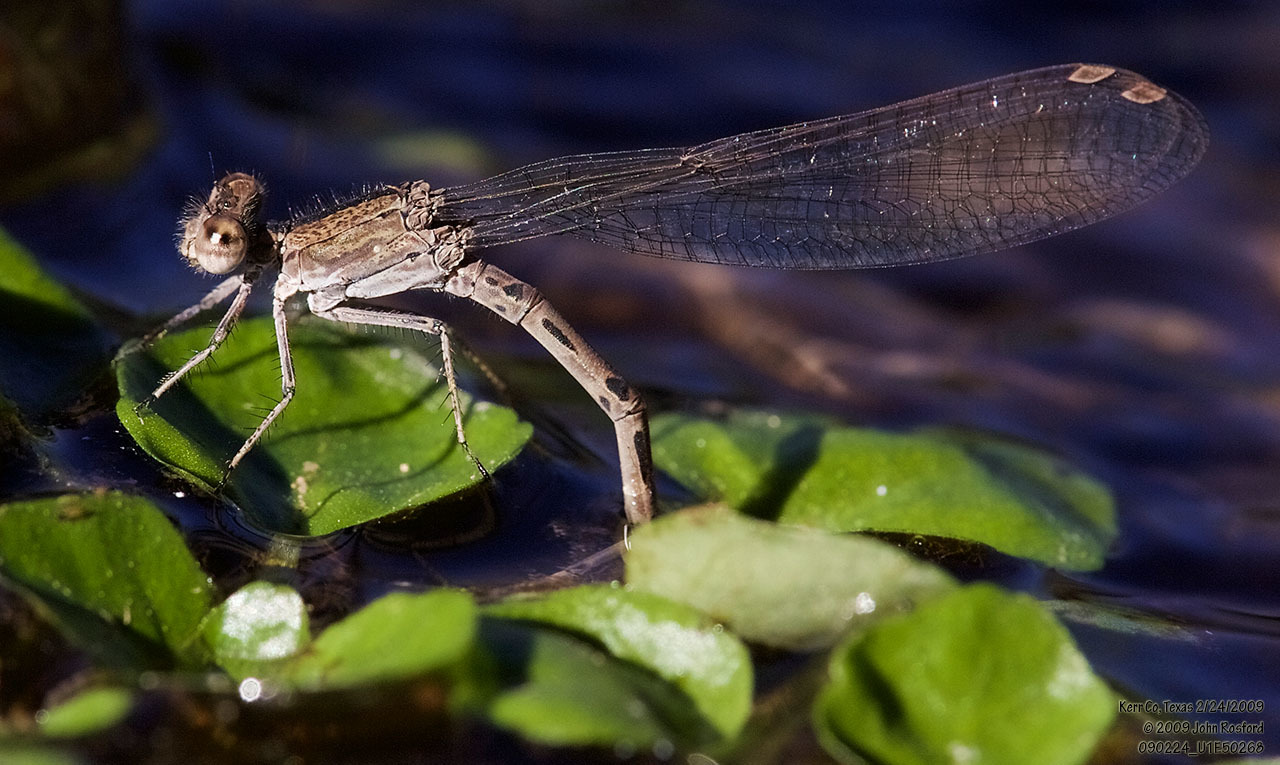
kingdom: Animalia
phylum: Arthropoda
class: Insecta
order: Odonata
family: Coenagrionidae
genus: Argia
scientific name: Argia immunda
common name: Kiowa dancer
